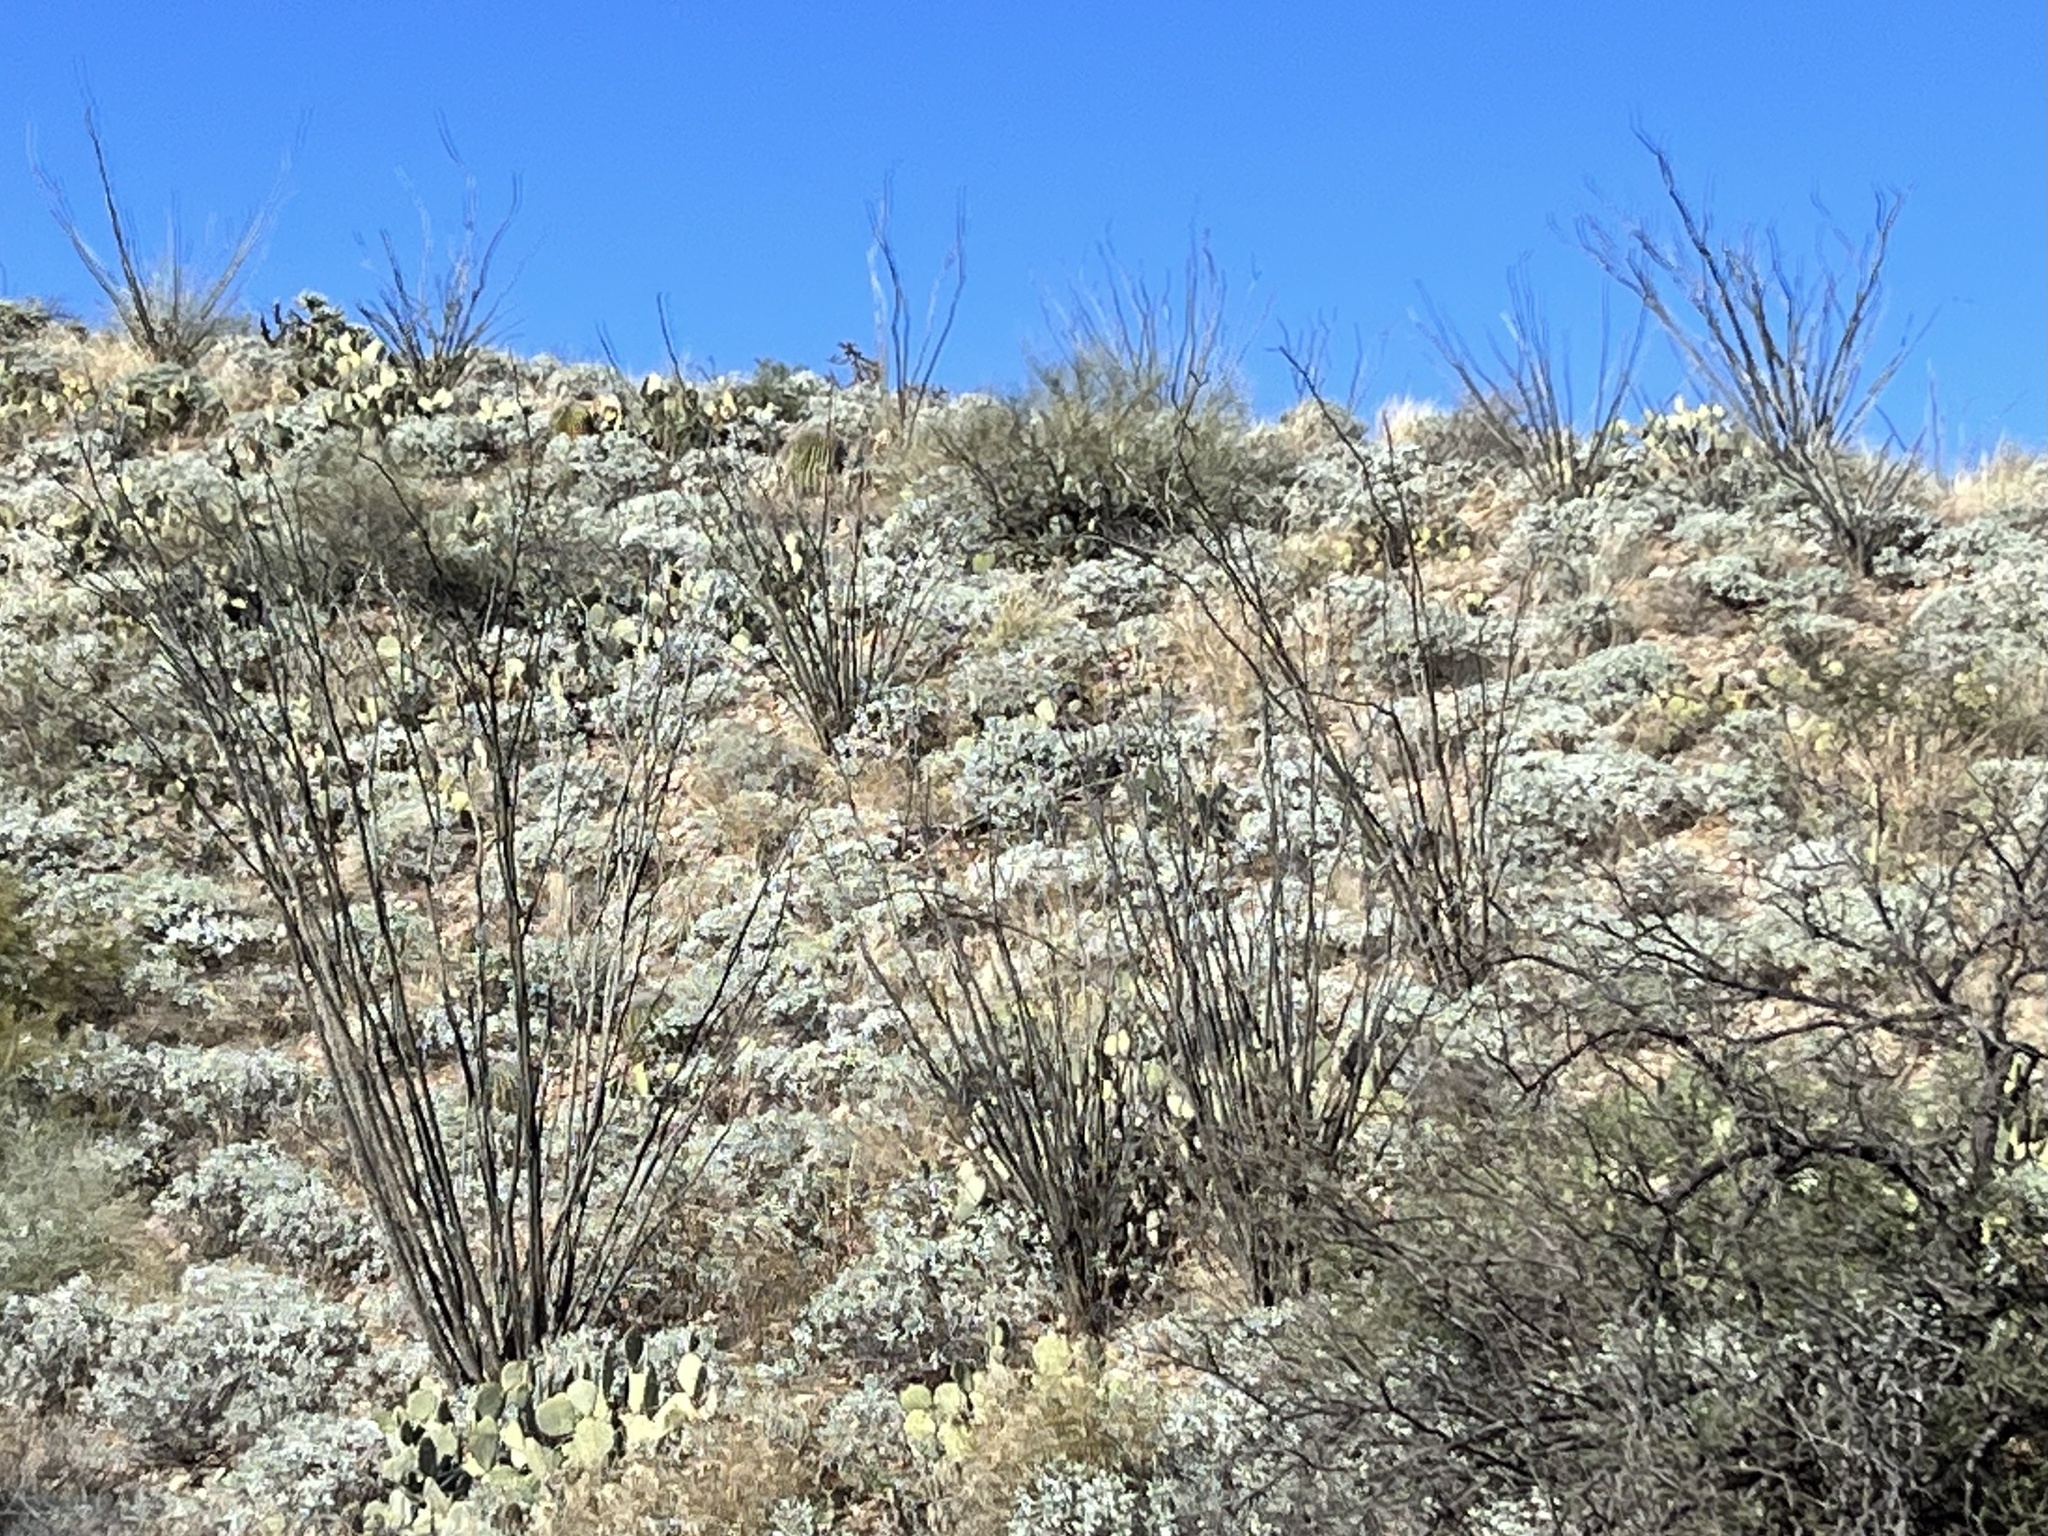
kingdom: Plantae
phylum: Tracheophyta
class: Magnoliopsida
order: Ericales
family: Fouquieriaceae
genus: Fouquieria
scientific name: Fouquieria splendens
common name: Vine-cactus
